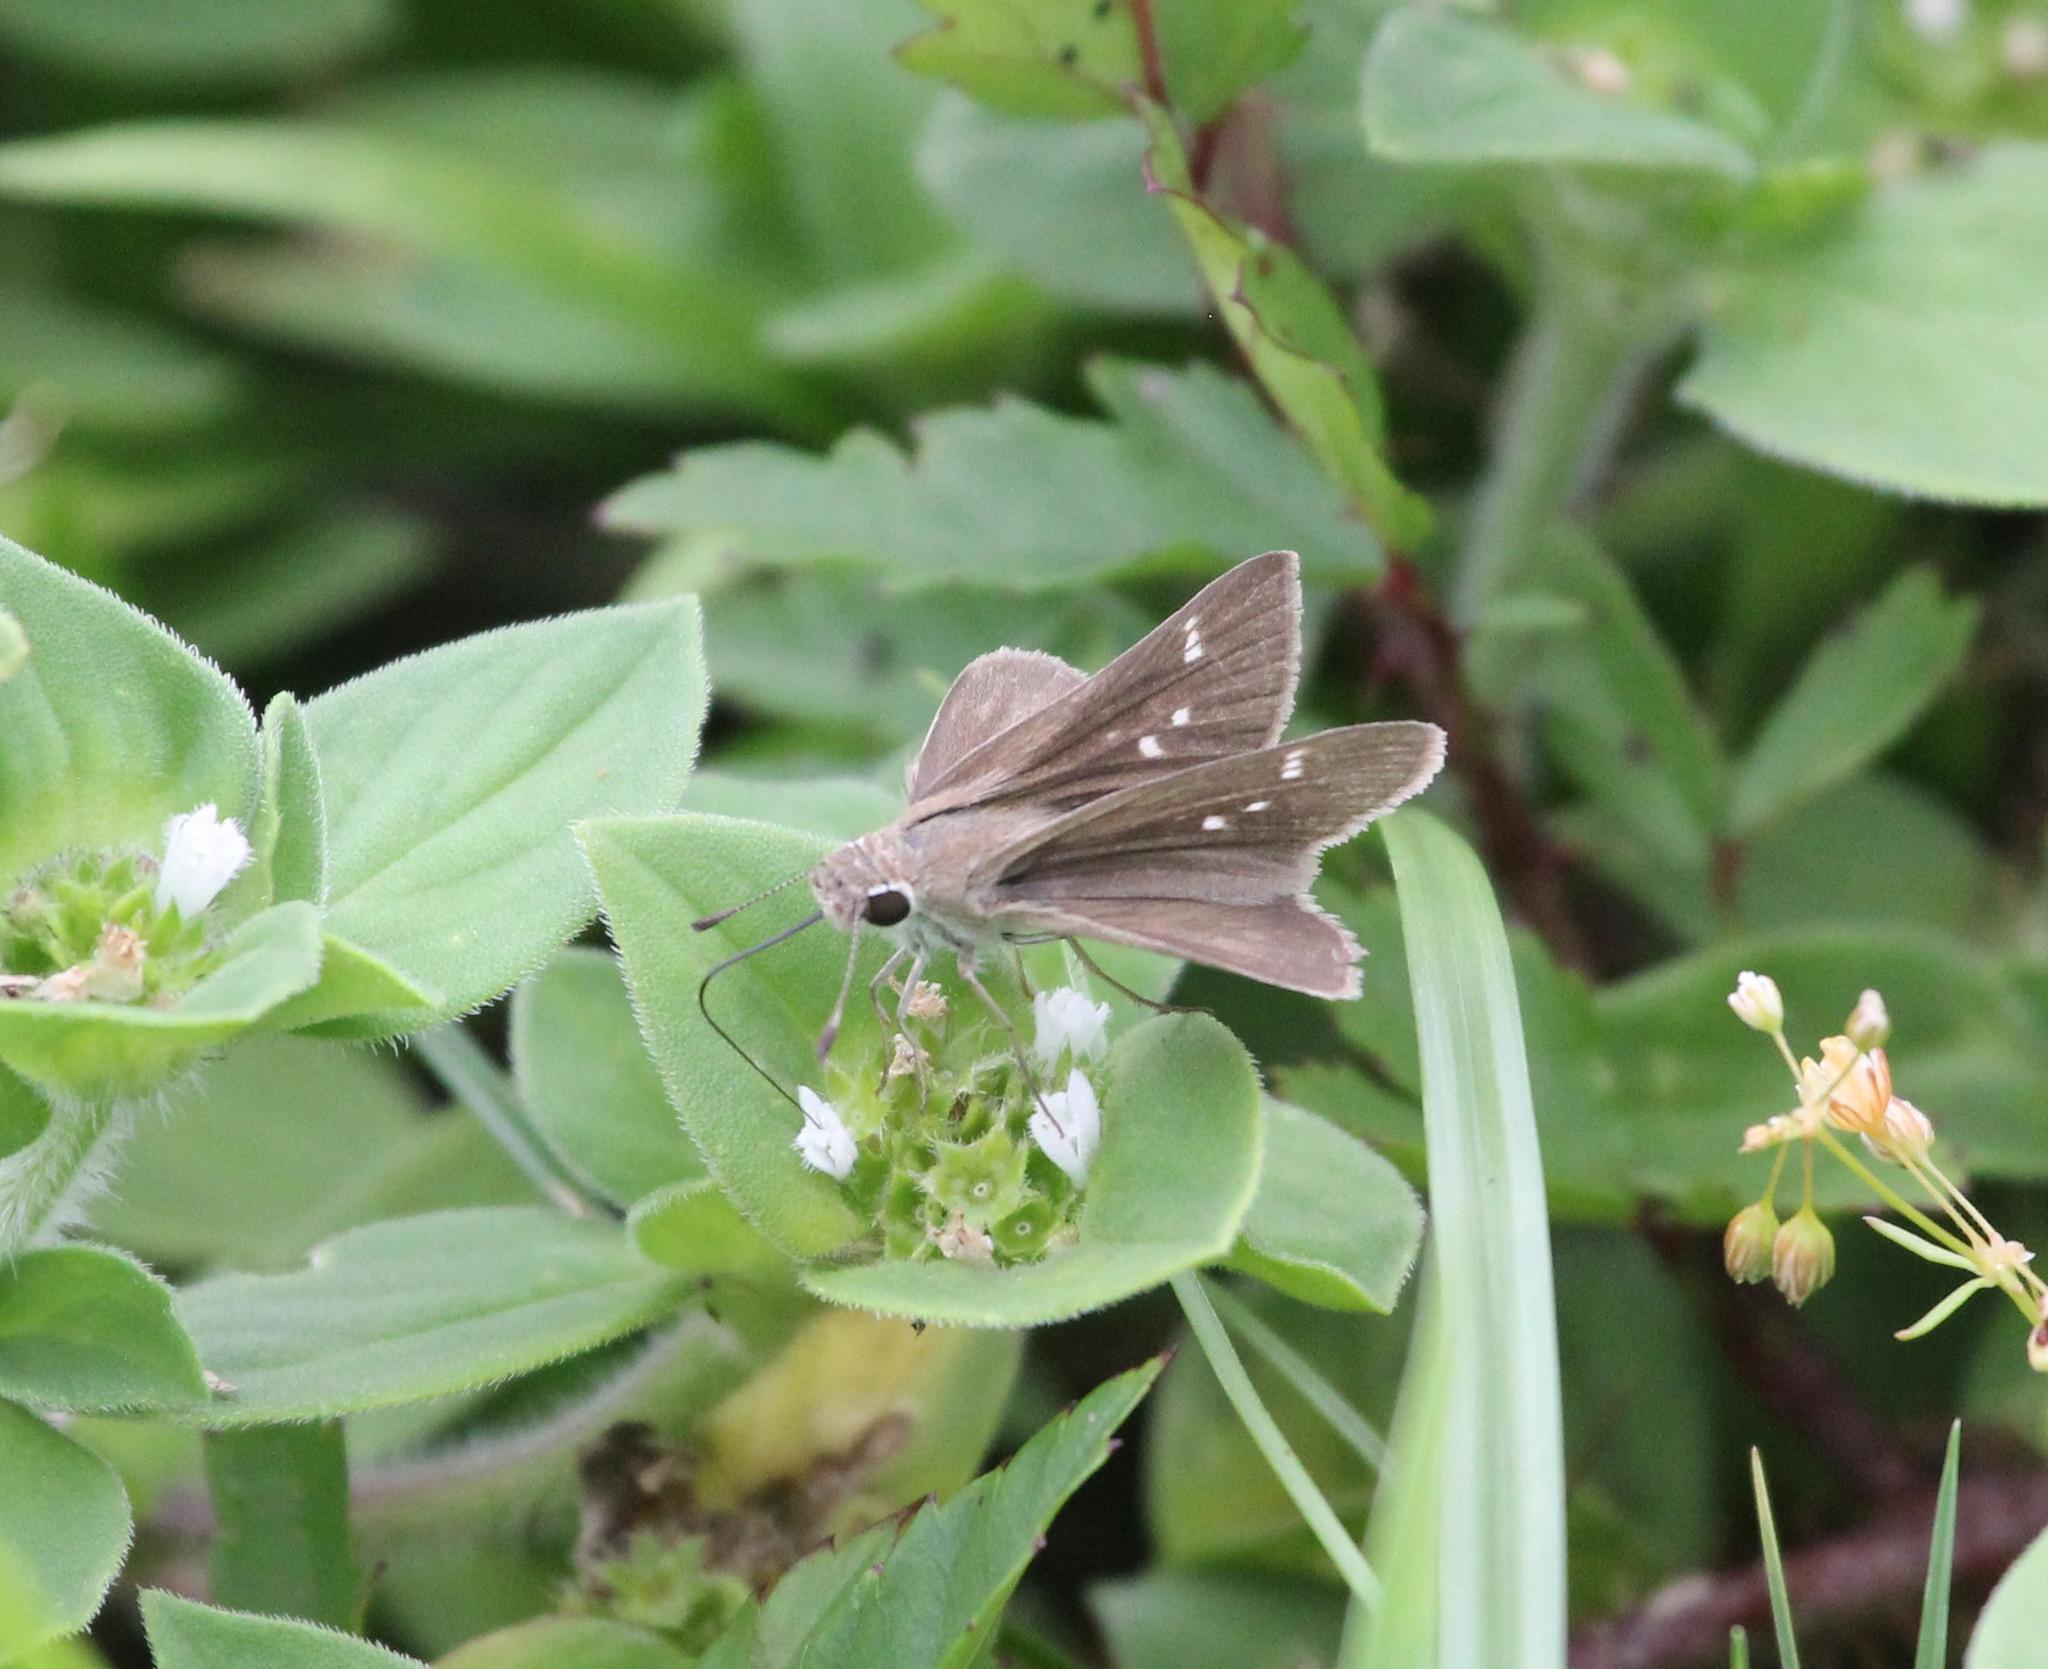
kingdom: Animalia
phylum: Arthropoda
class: Insecta
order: Lepidoptera
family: Hesperiidae
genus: Lerodea
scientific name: Lerodea eufala
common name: Eufala skipper
